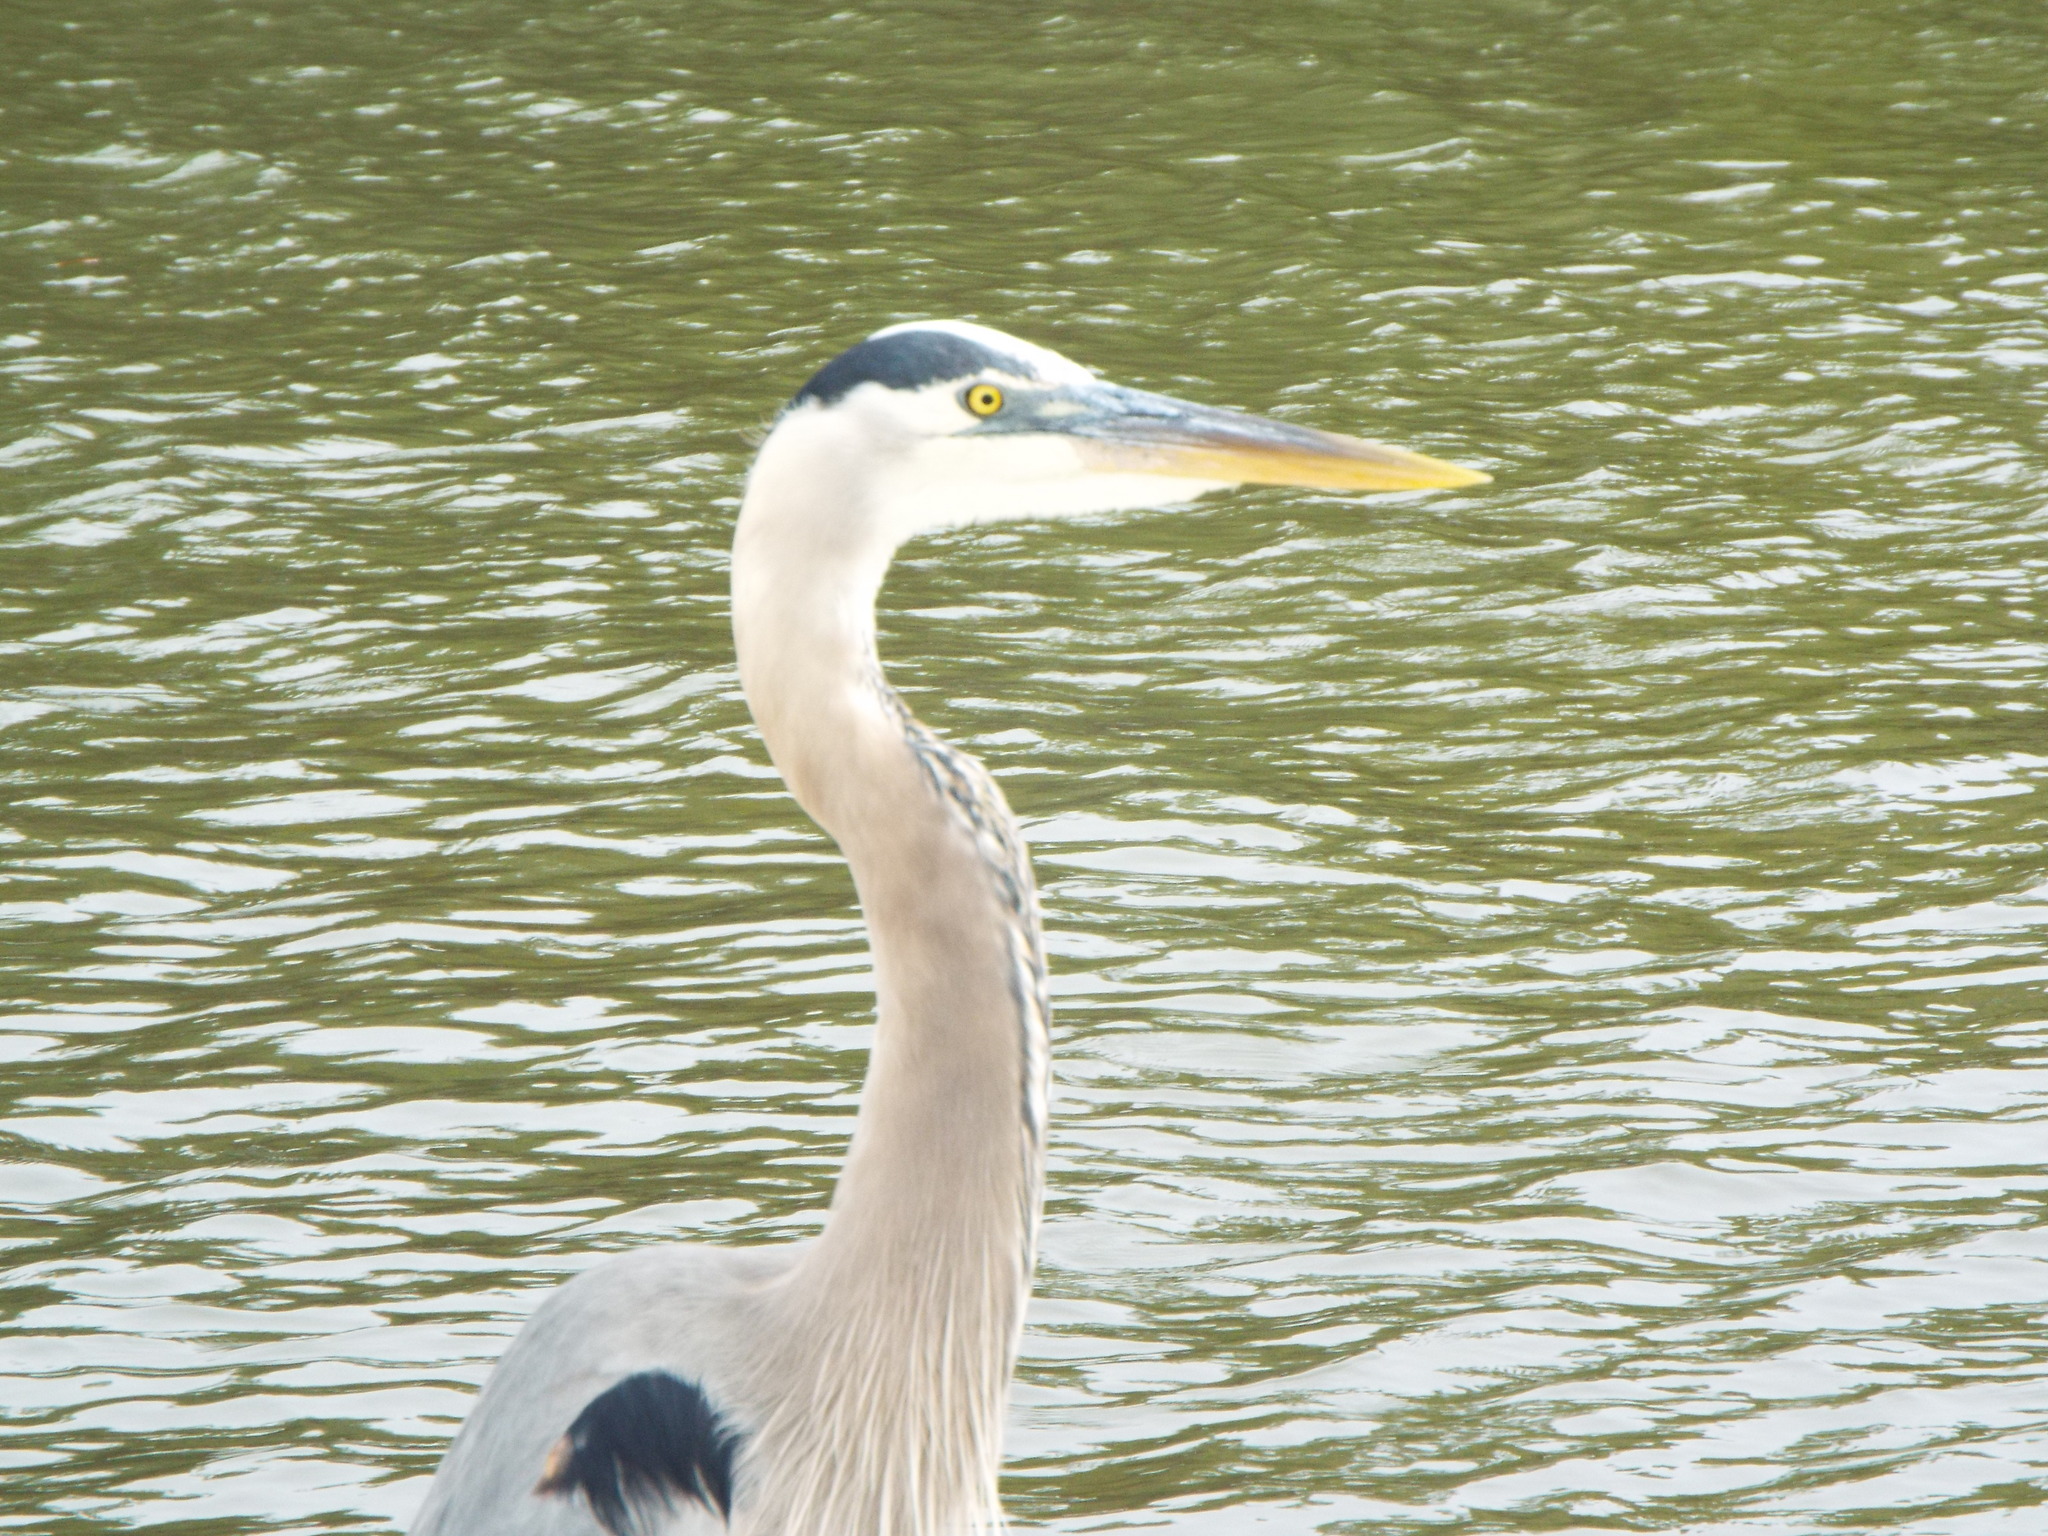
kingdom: Animalia
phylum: Chordata
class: Aves
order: Pelecaniformes
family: Ardeidae
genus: Ardea
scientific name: Ardea herodias
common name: Great blue heron
